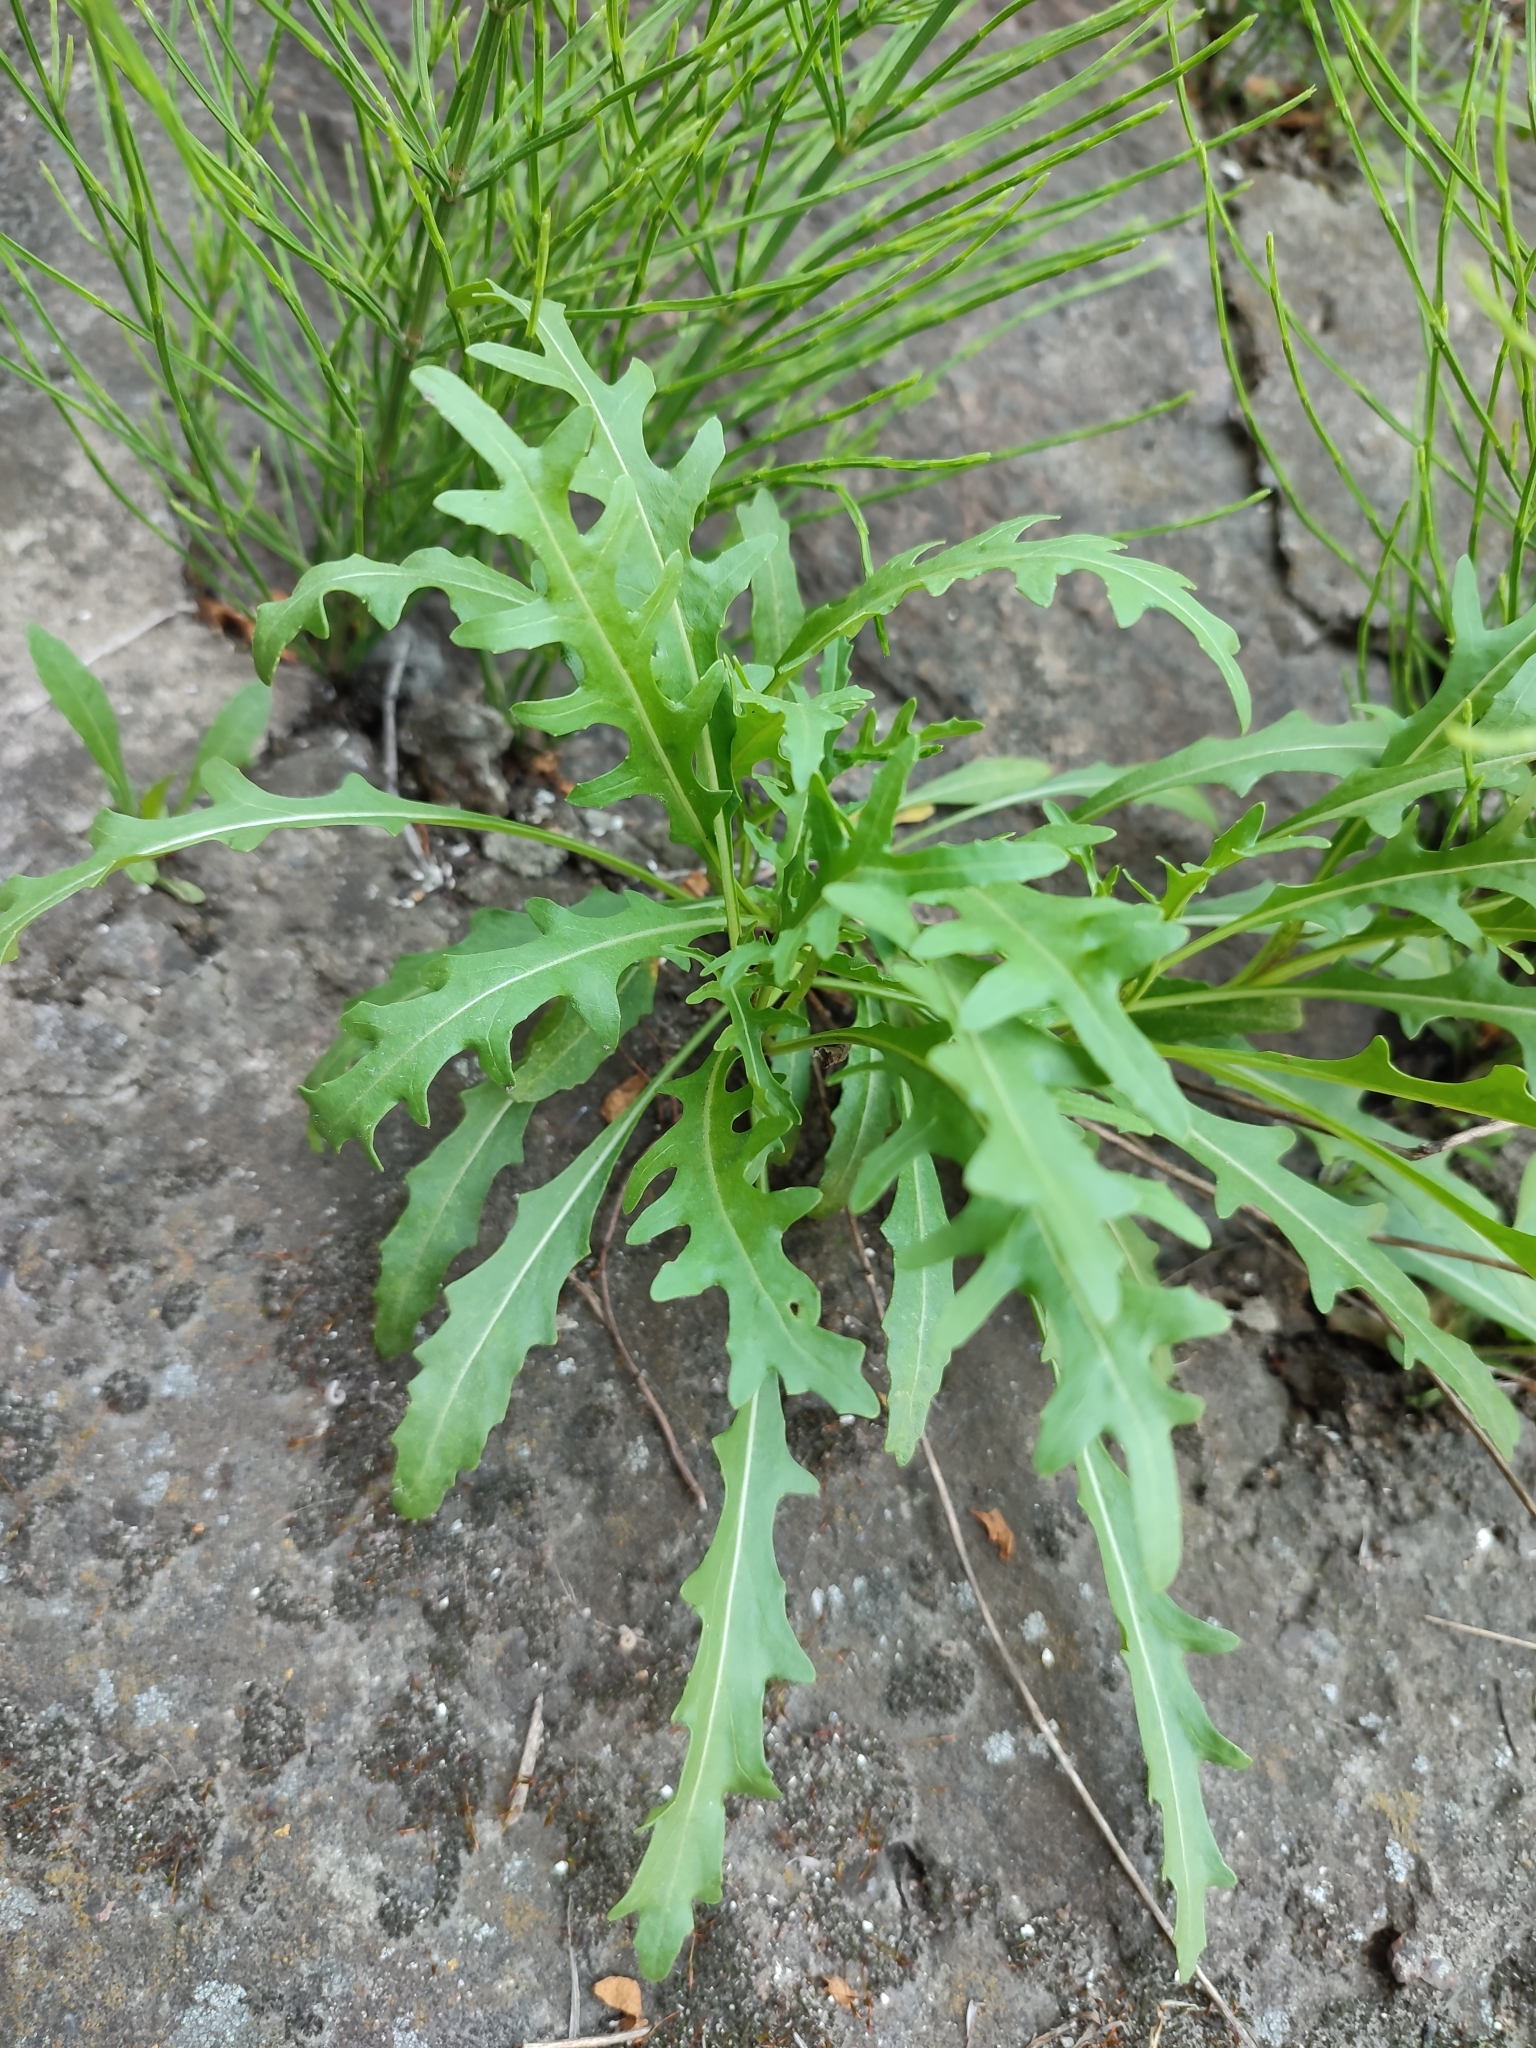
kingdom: Plantae
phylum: Tracheophyta
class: Magnoliopsida
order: Brassicales
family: Brassicaceae
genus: Diplotaxis
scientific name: Diplotaxis tenuifolia
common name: Perennial wall-rocket
